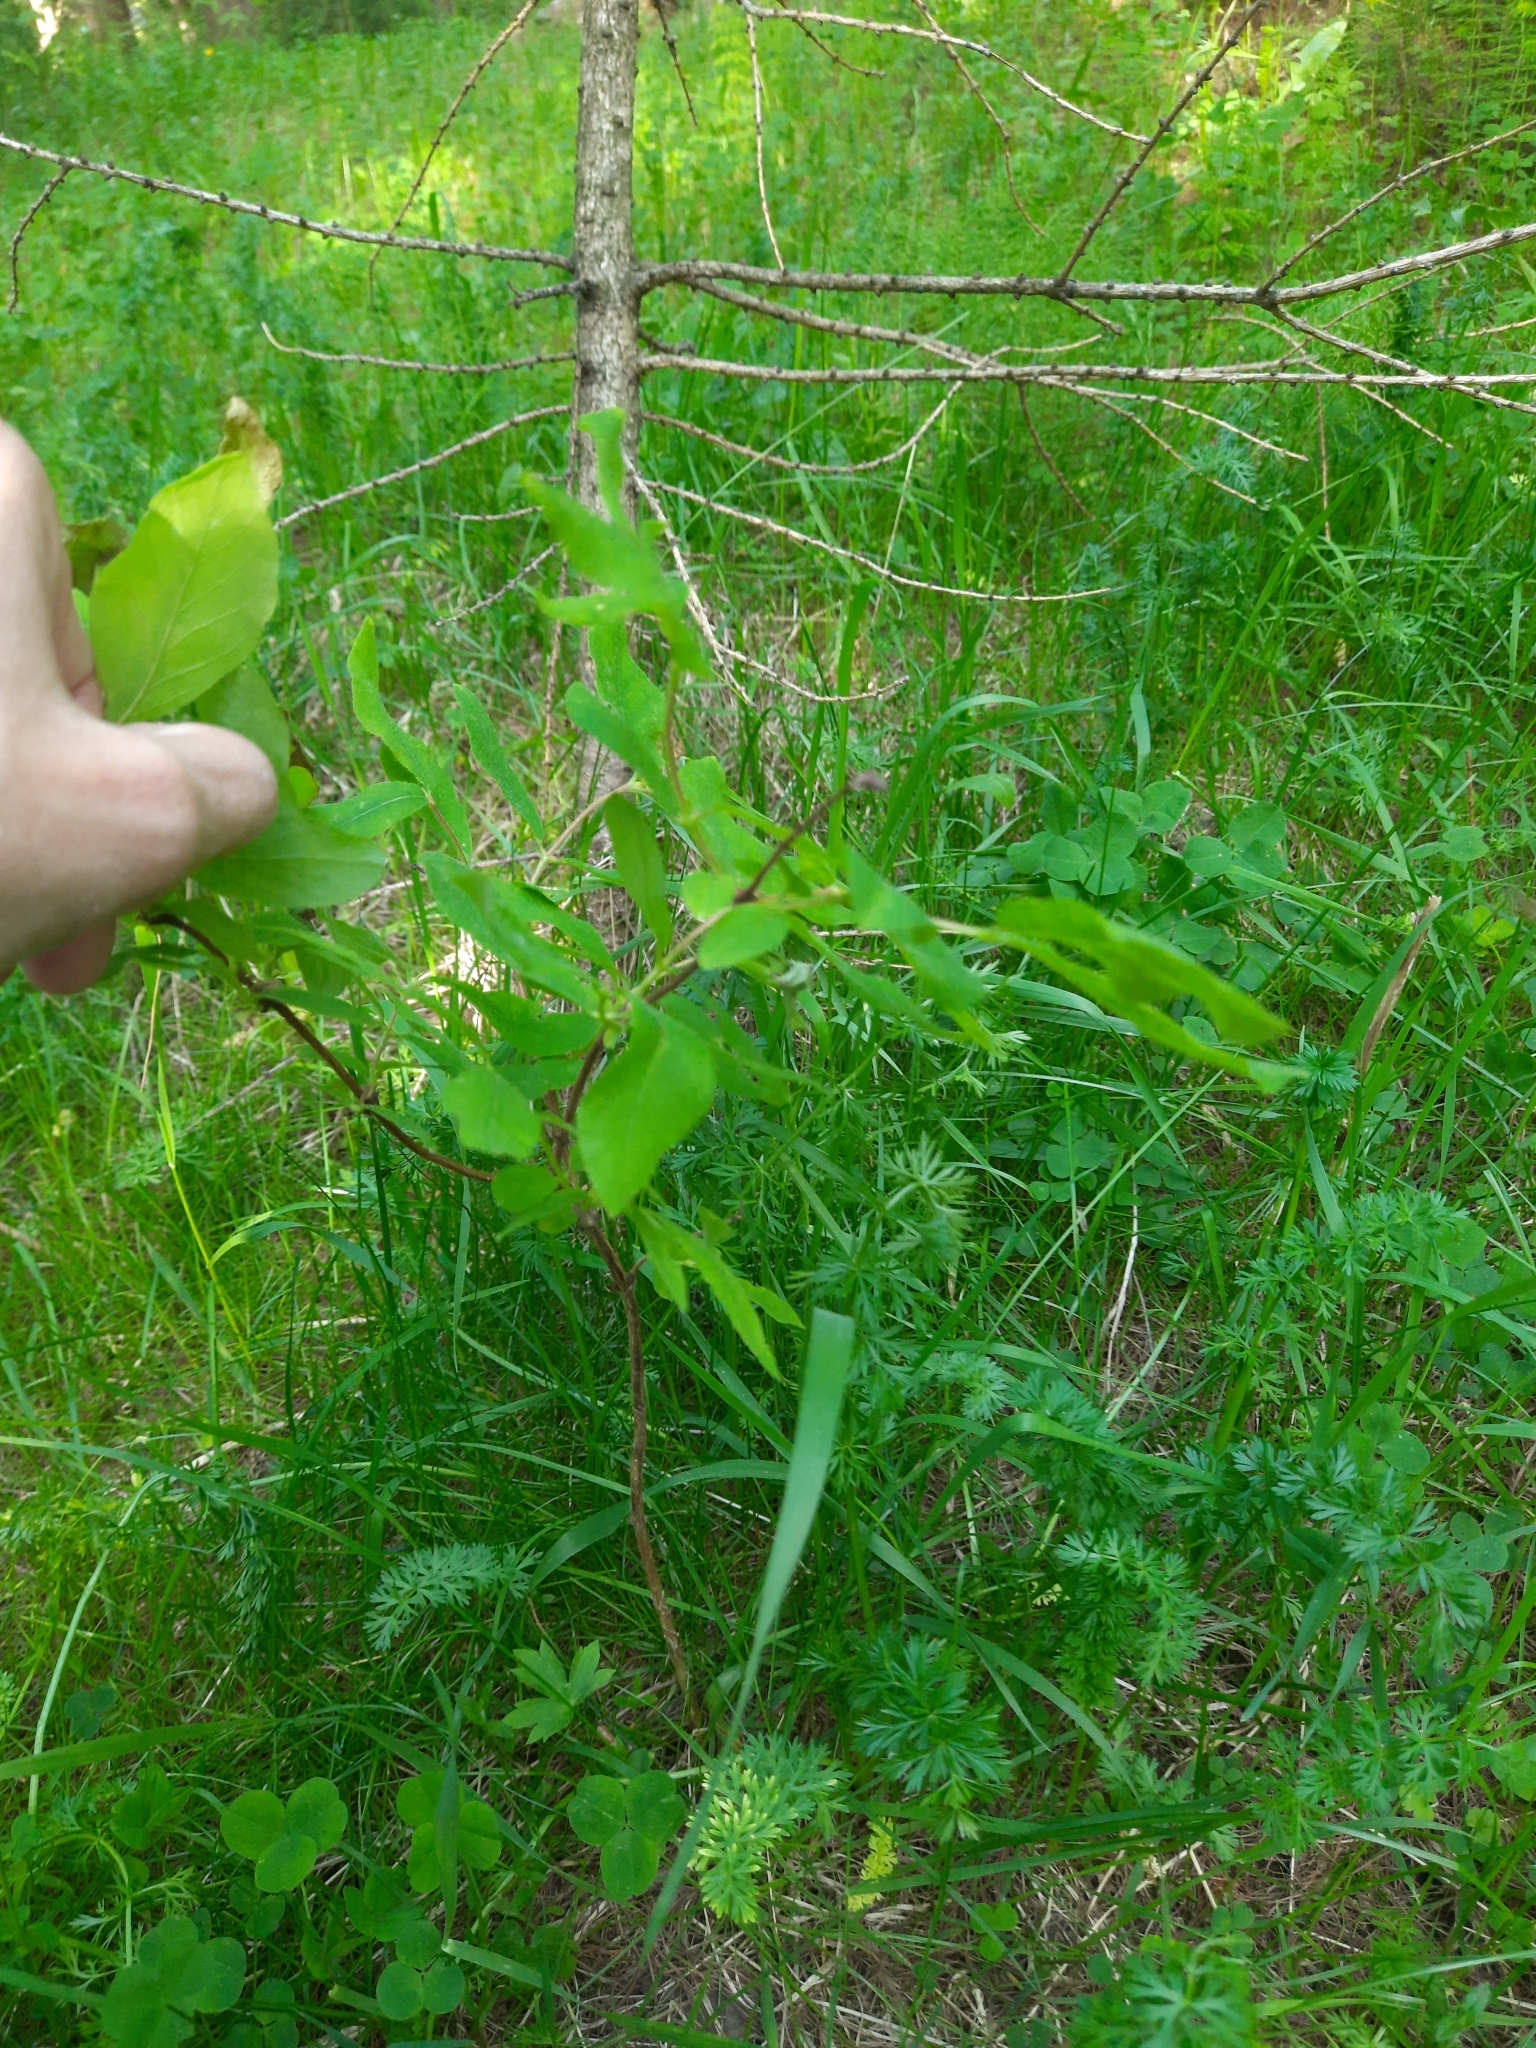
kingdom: Plantae
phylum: Tracheophyta
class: Magnoliopsida
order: Dipsacales
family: Caprifoliaceae
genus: Lonicera
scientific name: Lonicera caerulea
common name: Blue honeysuckle
